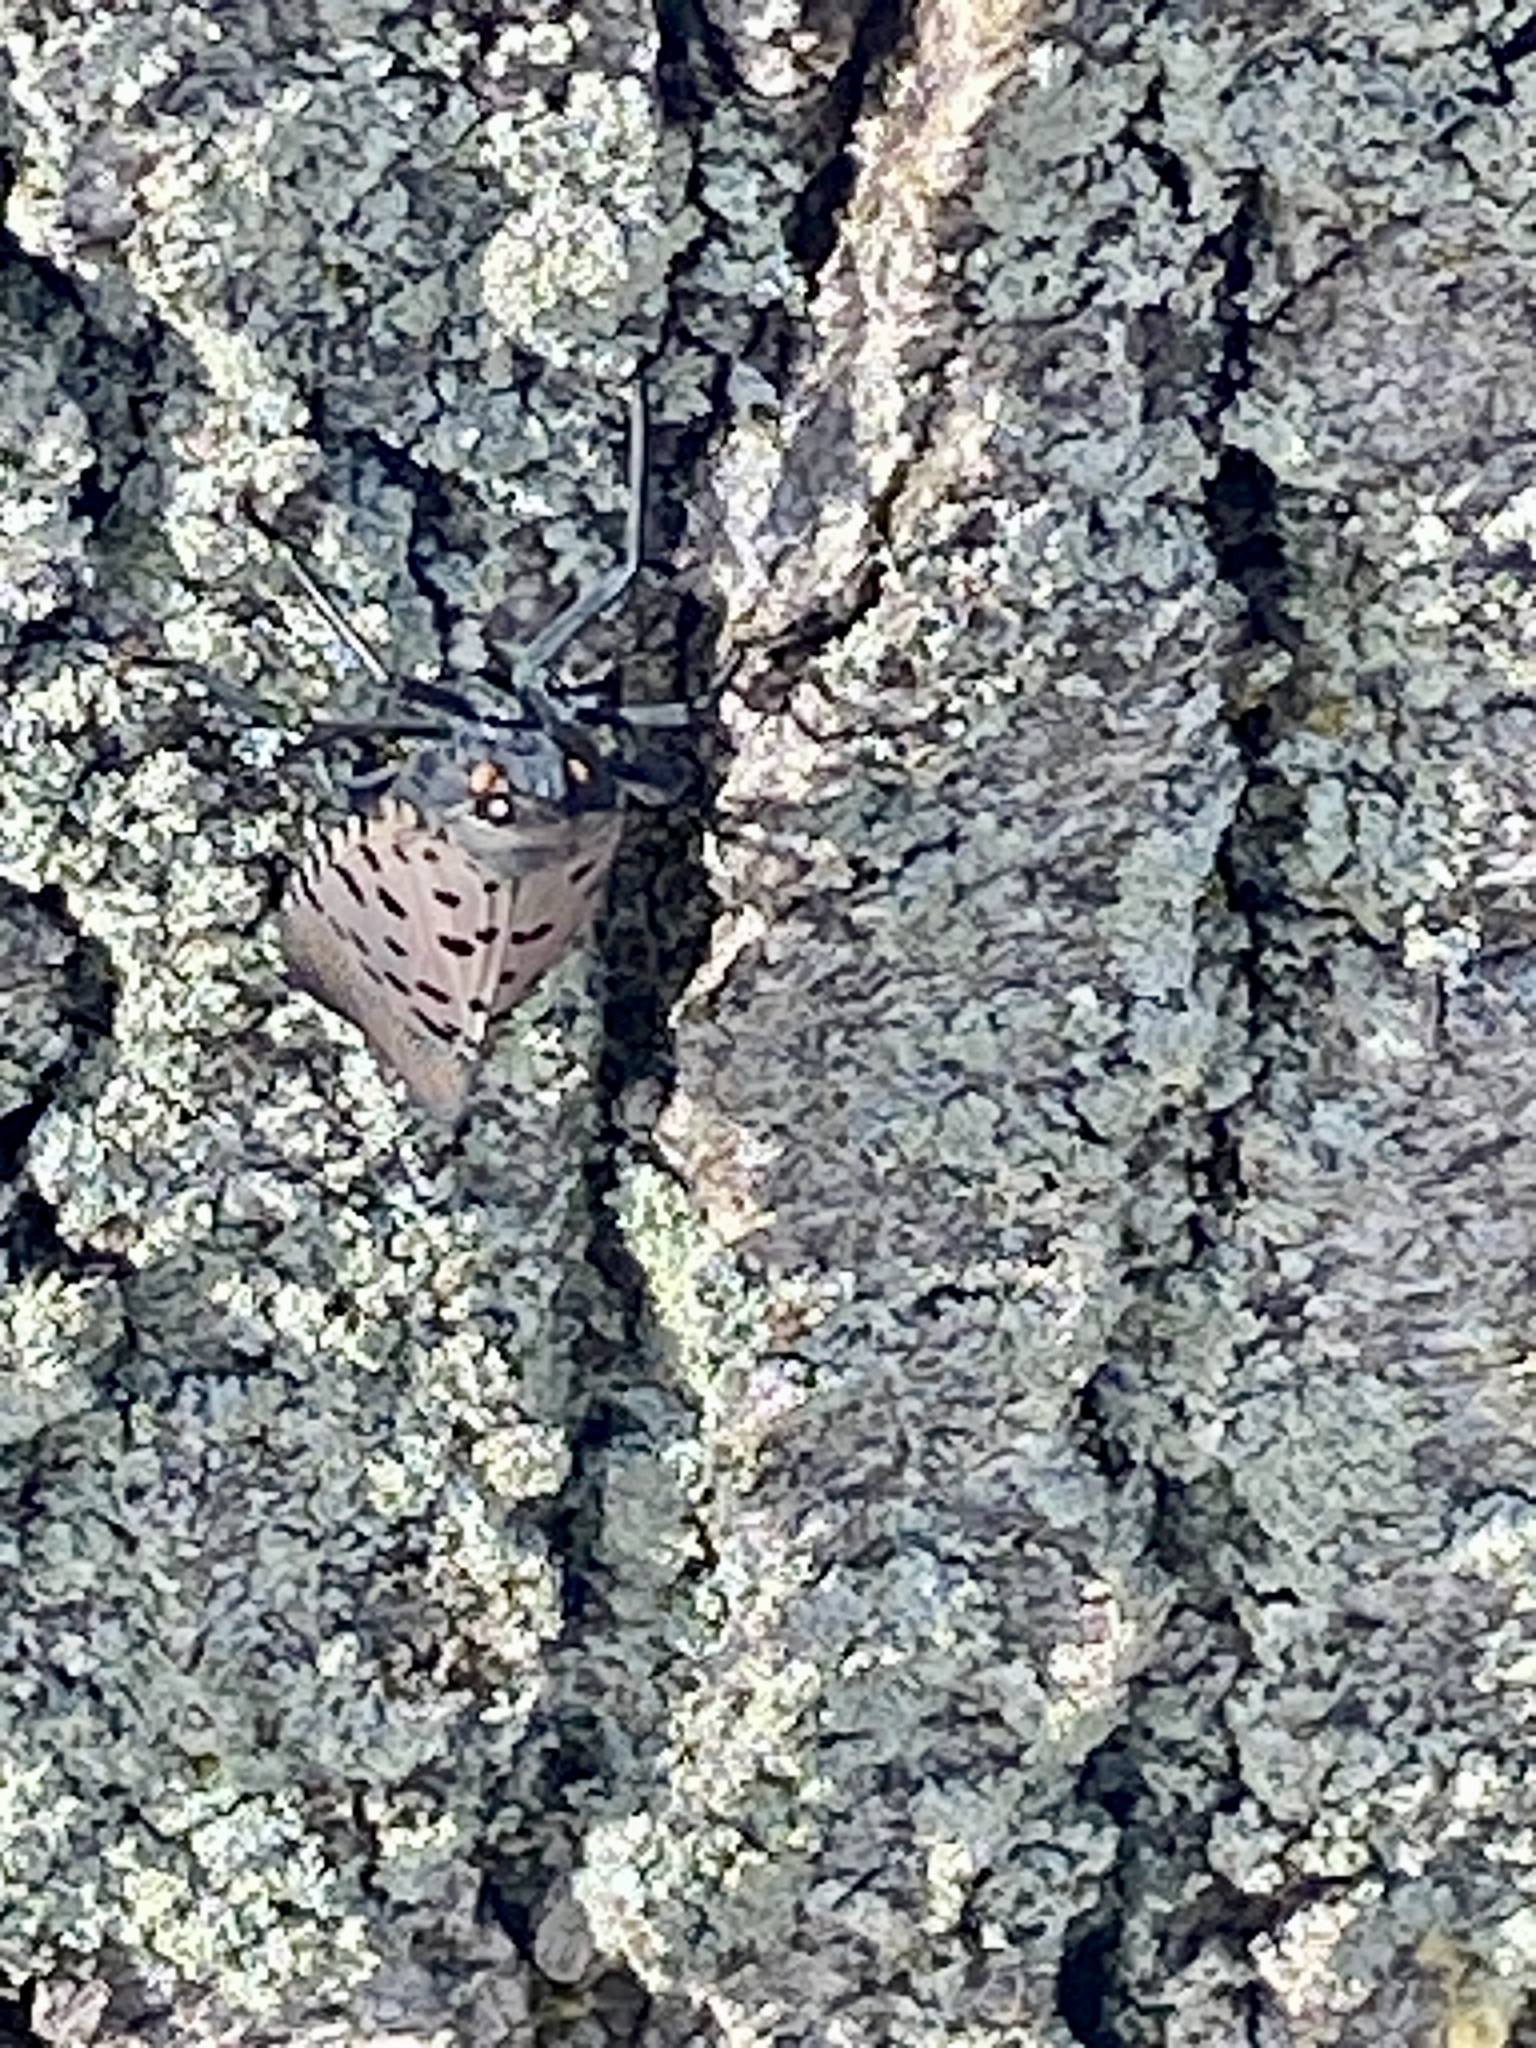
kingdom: Animalia
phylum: Arthropoda
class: Insecta
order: Hemiptera
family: Fulgoridae
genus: Lycorma
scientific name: Lycorma delicatula
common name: Spotted lanternfly
